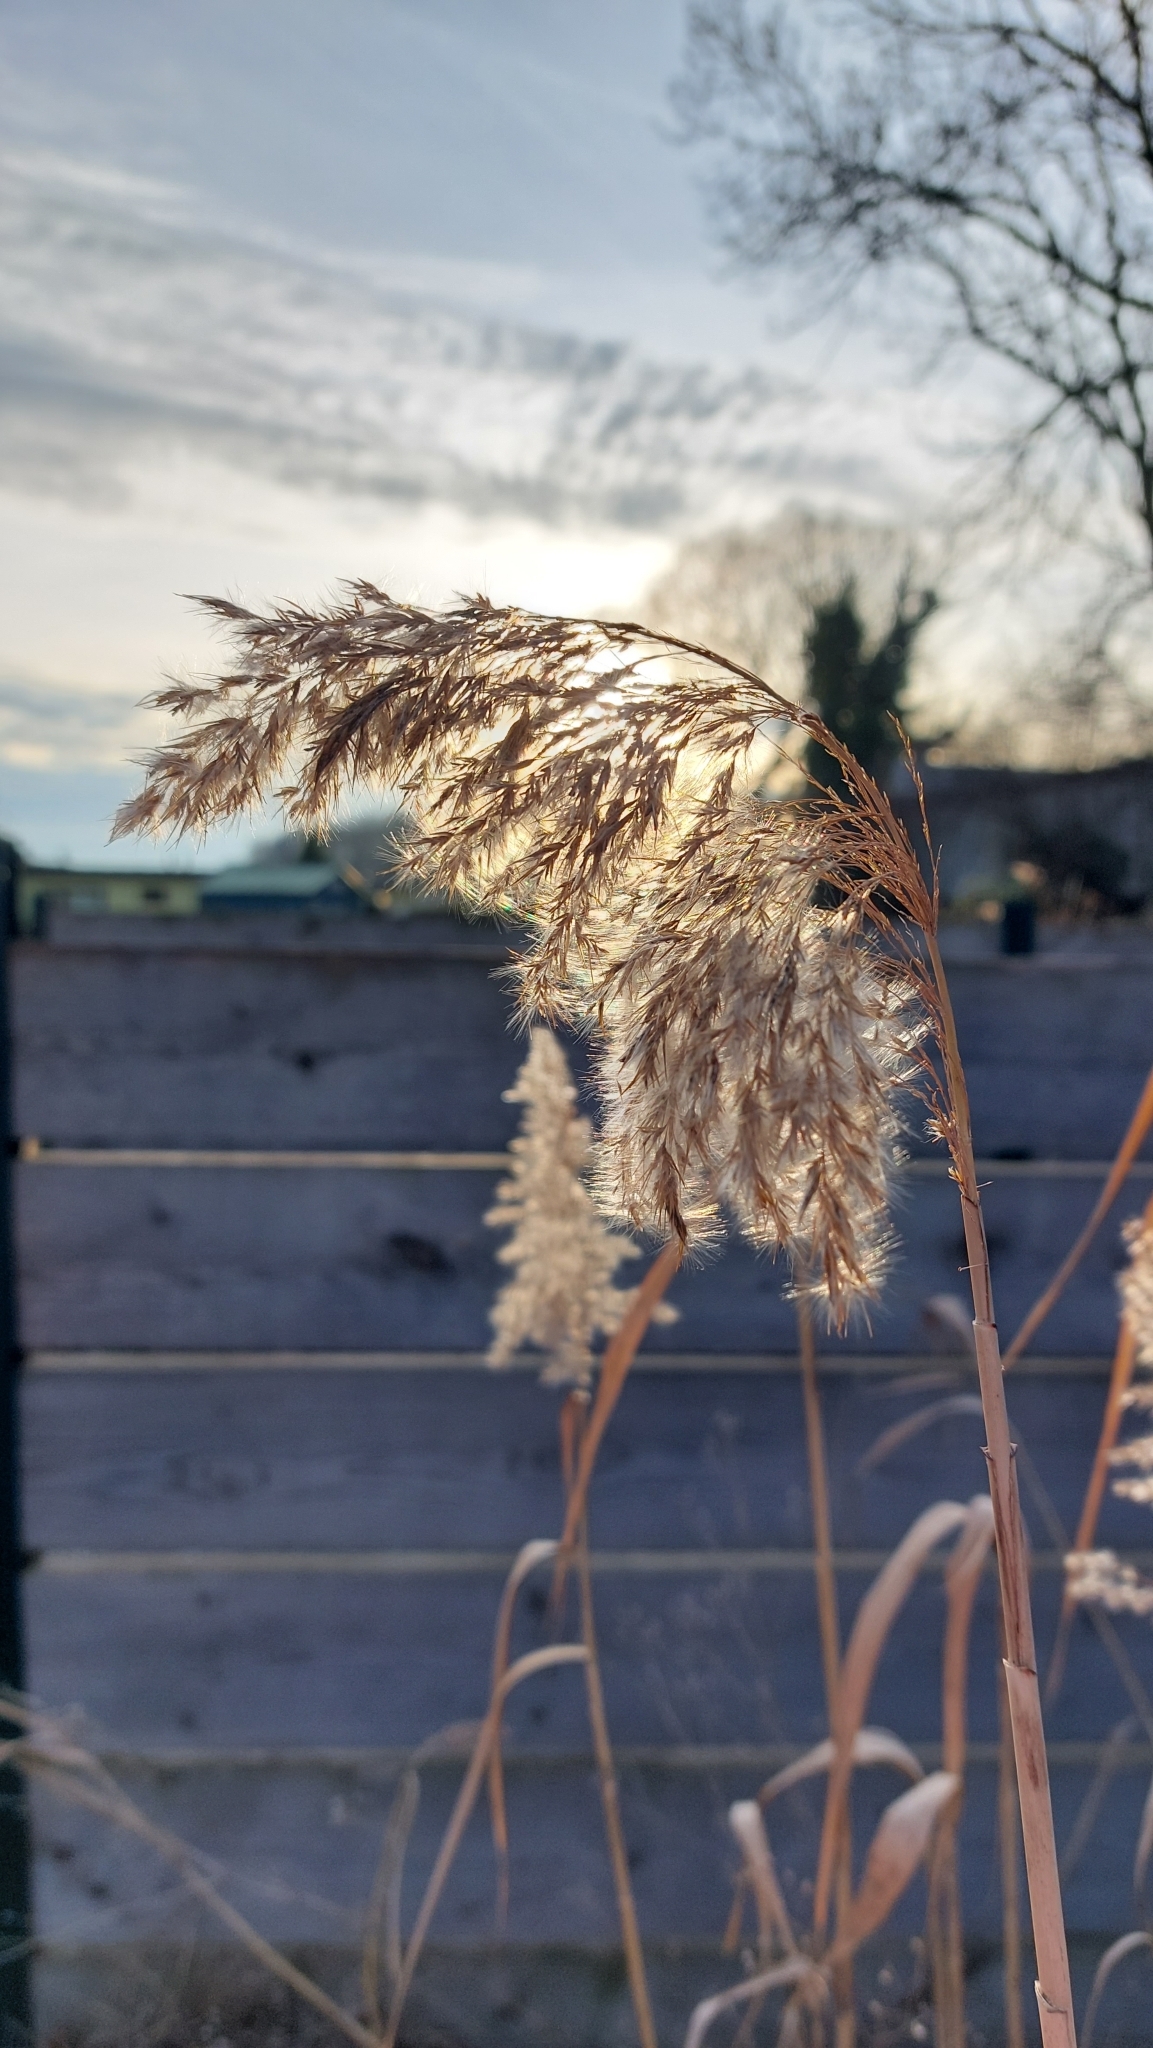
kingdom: Plantae
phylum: Tracheophyta
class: Liliopsida
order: Poales
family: Poaceae
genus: Phragmites
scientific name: Phragmites australis
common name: Common reed
